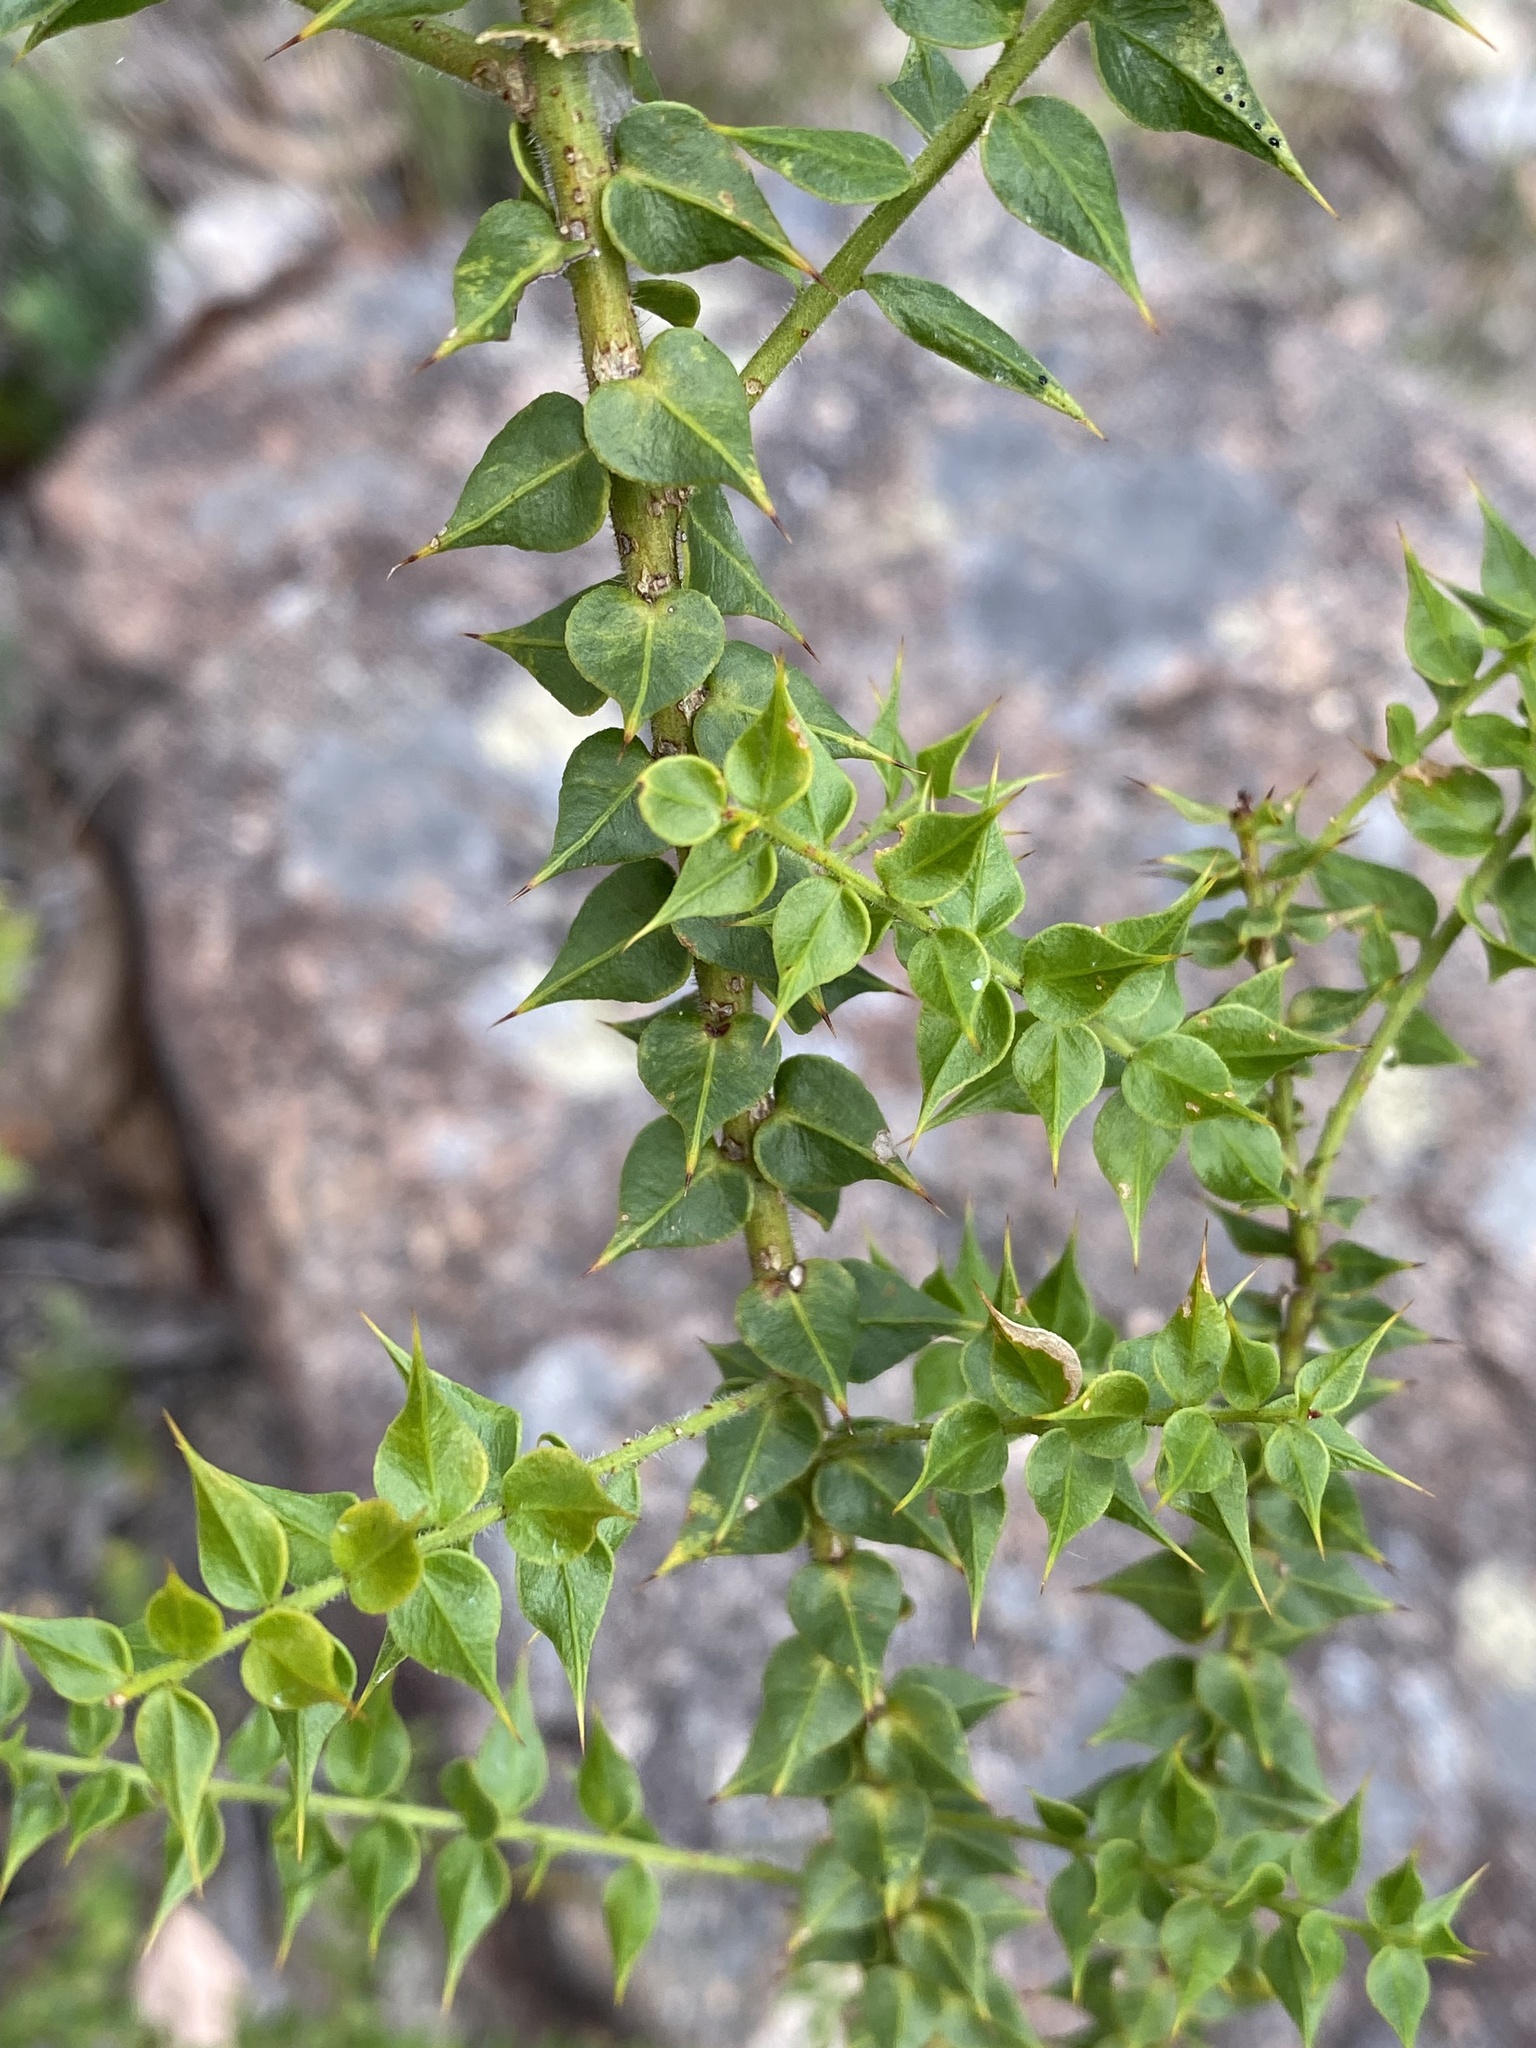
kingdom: Plantae
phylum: Tracheophyta
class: Magnoliopsida
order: Fabales
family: Fabaceae
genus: Daviesia
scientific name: Daviesia umbellulata
